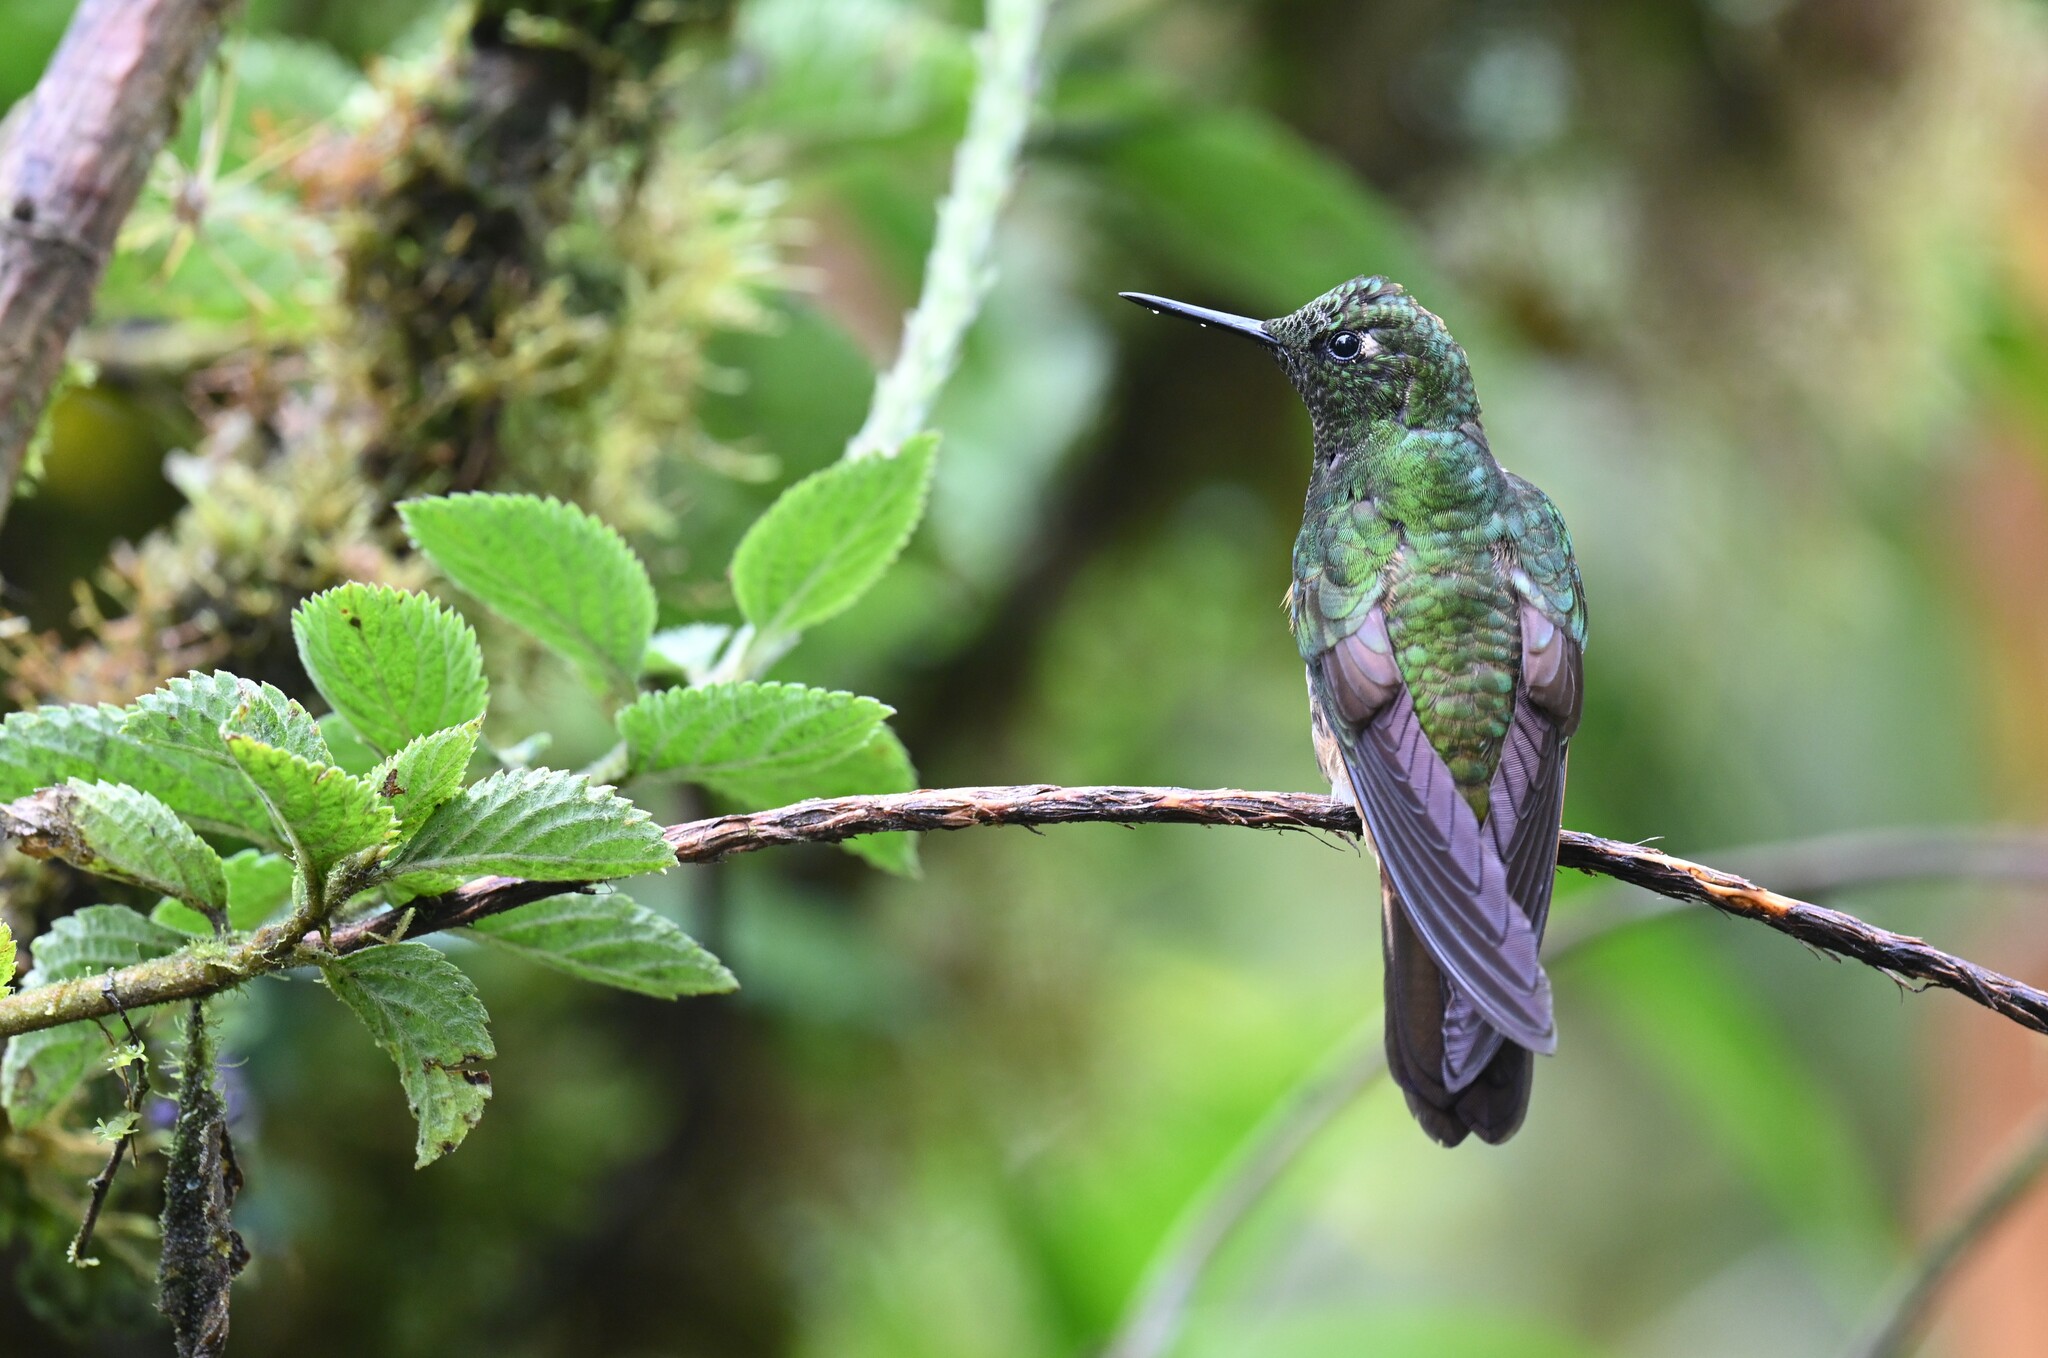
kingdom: Animalia
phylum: Chordata
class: Aves
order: Apodiformes
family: Trochilidae
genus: Boissonneaua
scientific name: Boissonneaua flavescens
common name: Buff-tailed coronet
